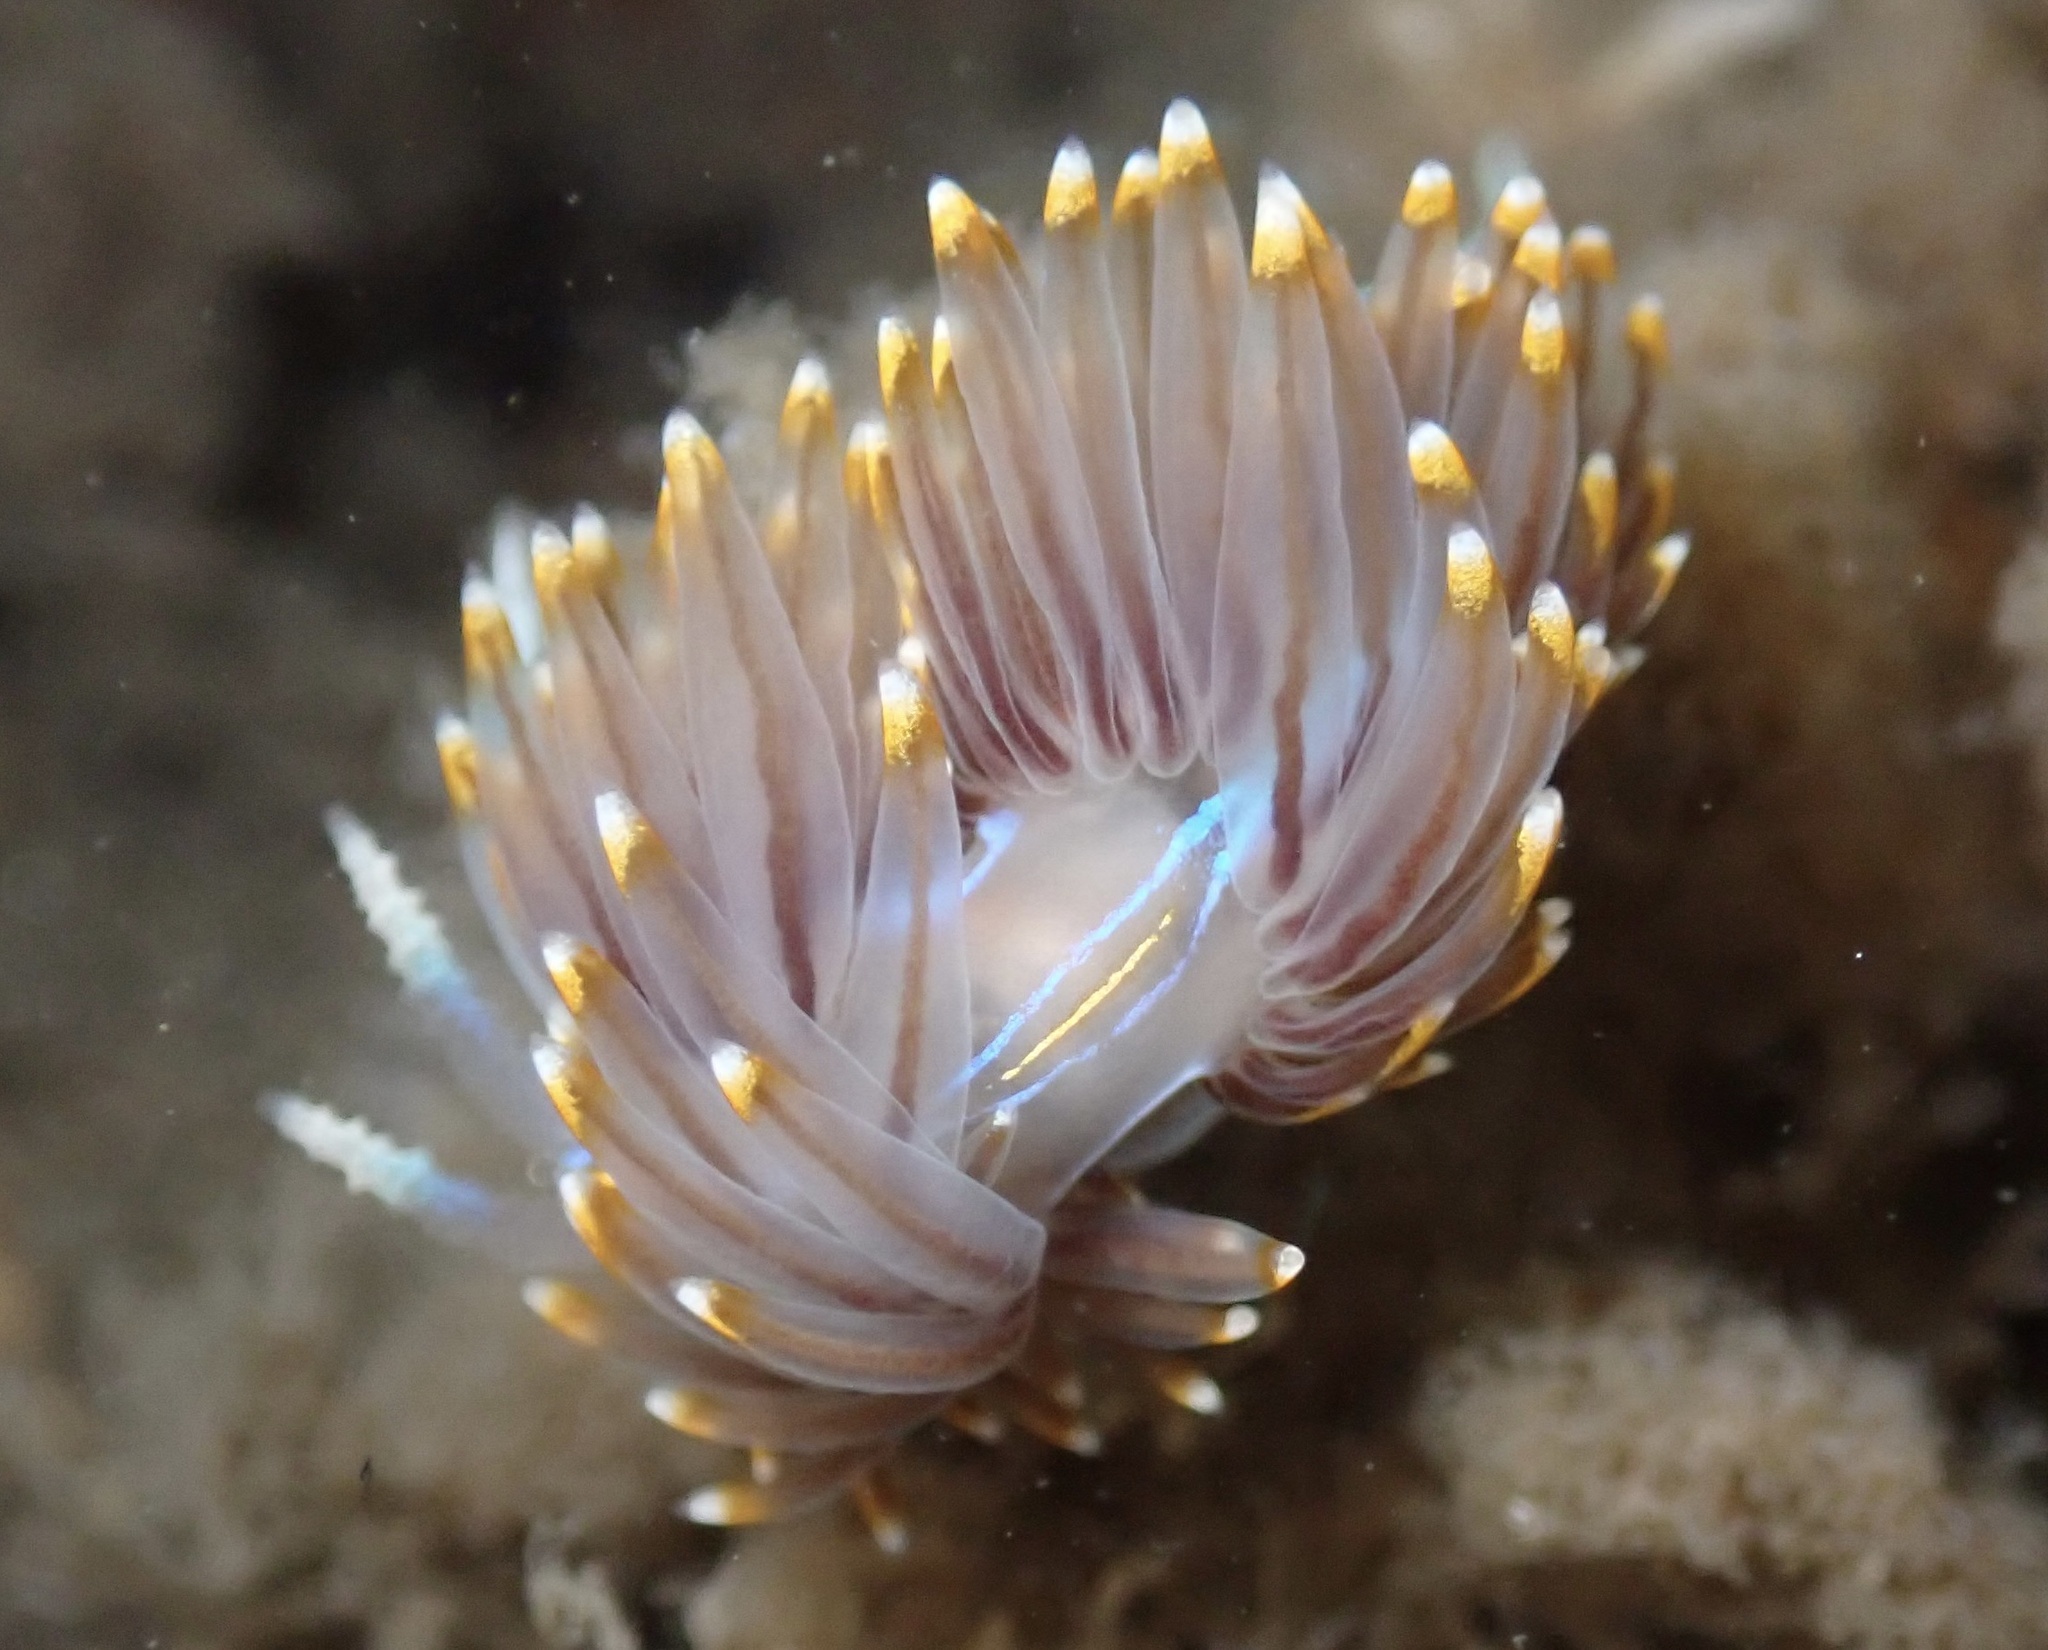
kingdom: Animalia
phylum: Mollusca
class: Gastropoda
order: Nudibranchia
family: Myrrhinidae
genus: Hermissenda
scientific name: Hermissenda opalescens
